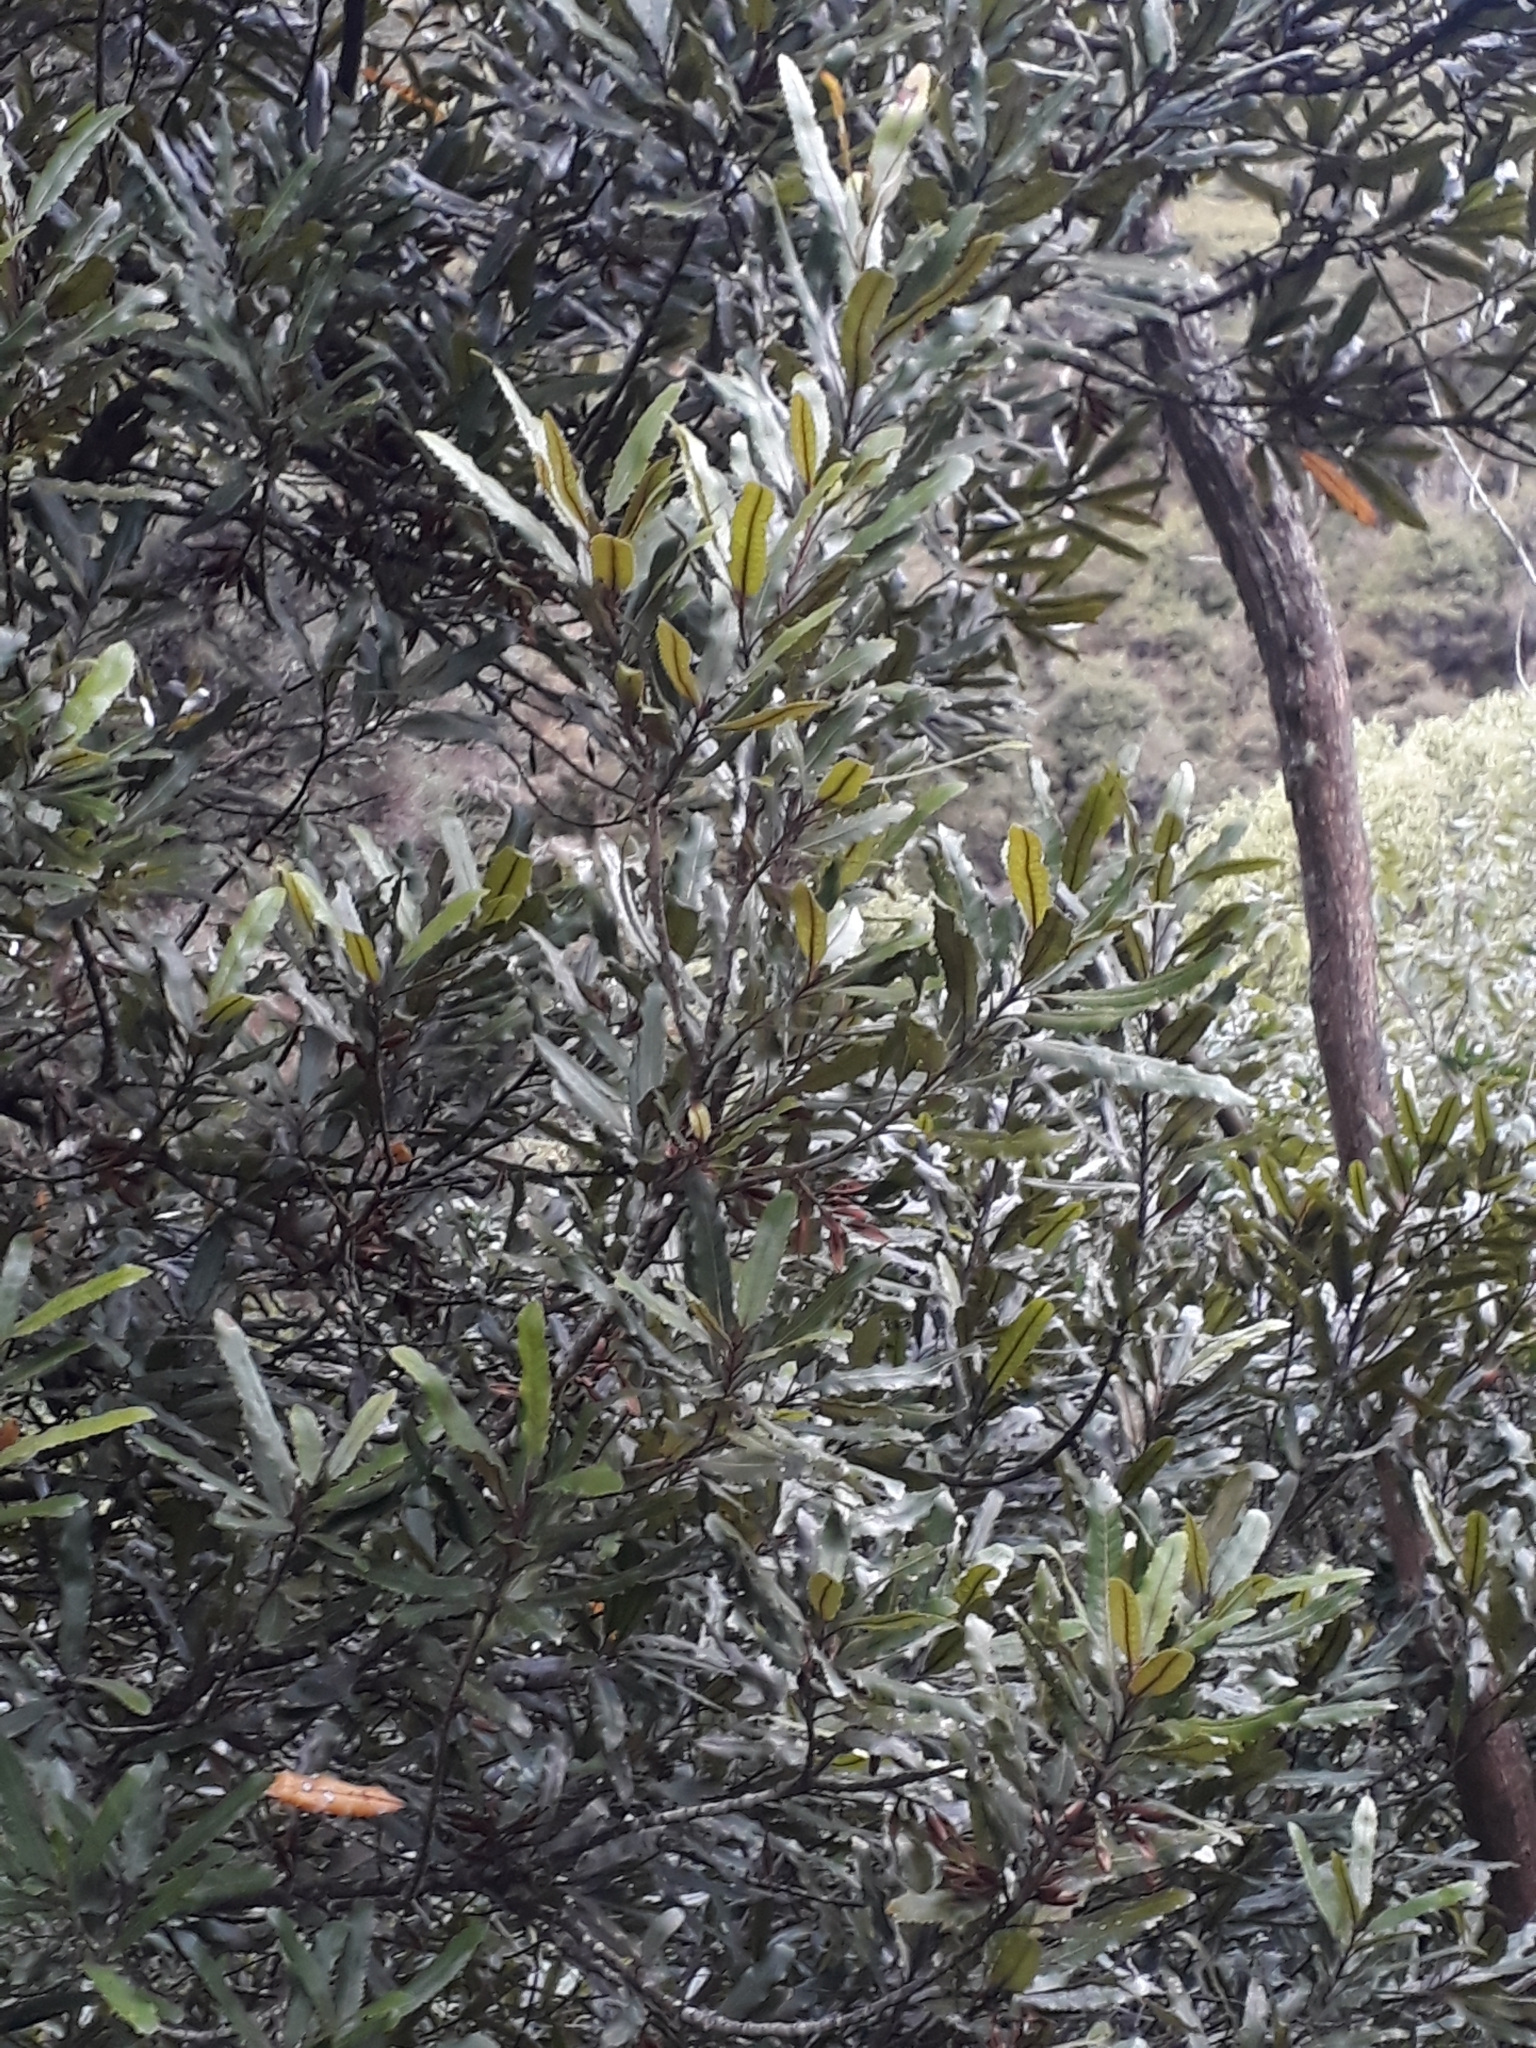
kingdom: Plantae
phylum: Tracheophyta
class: Magnoliopsida
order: Proteales
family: Proteaceae
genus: Knightia
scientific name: Knightia excelsa
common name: New zealand-honeysuckle
